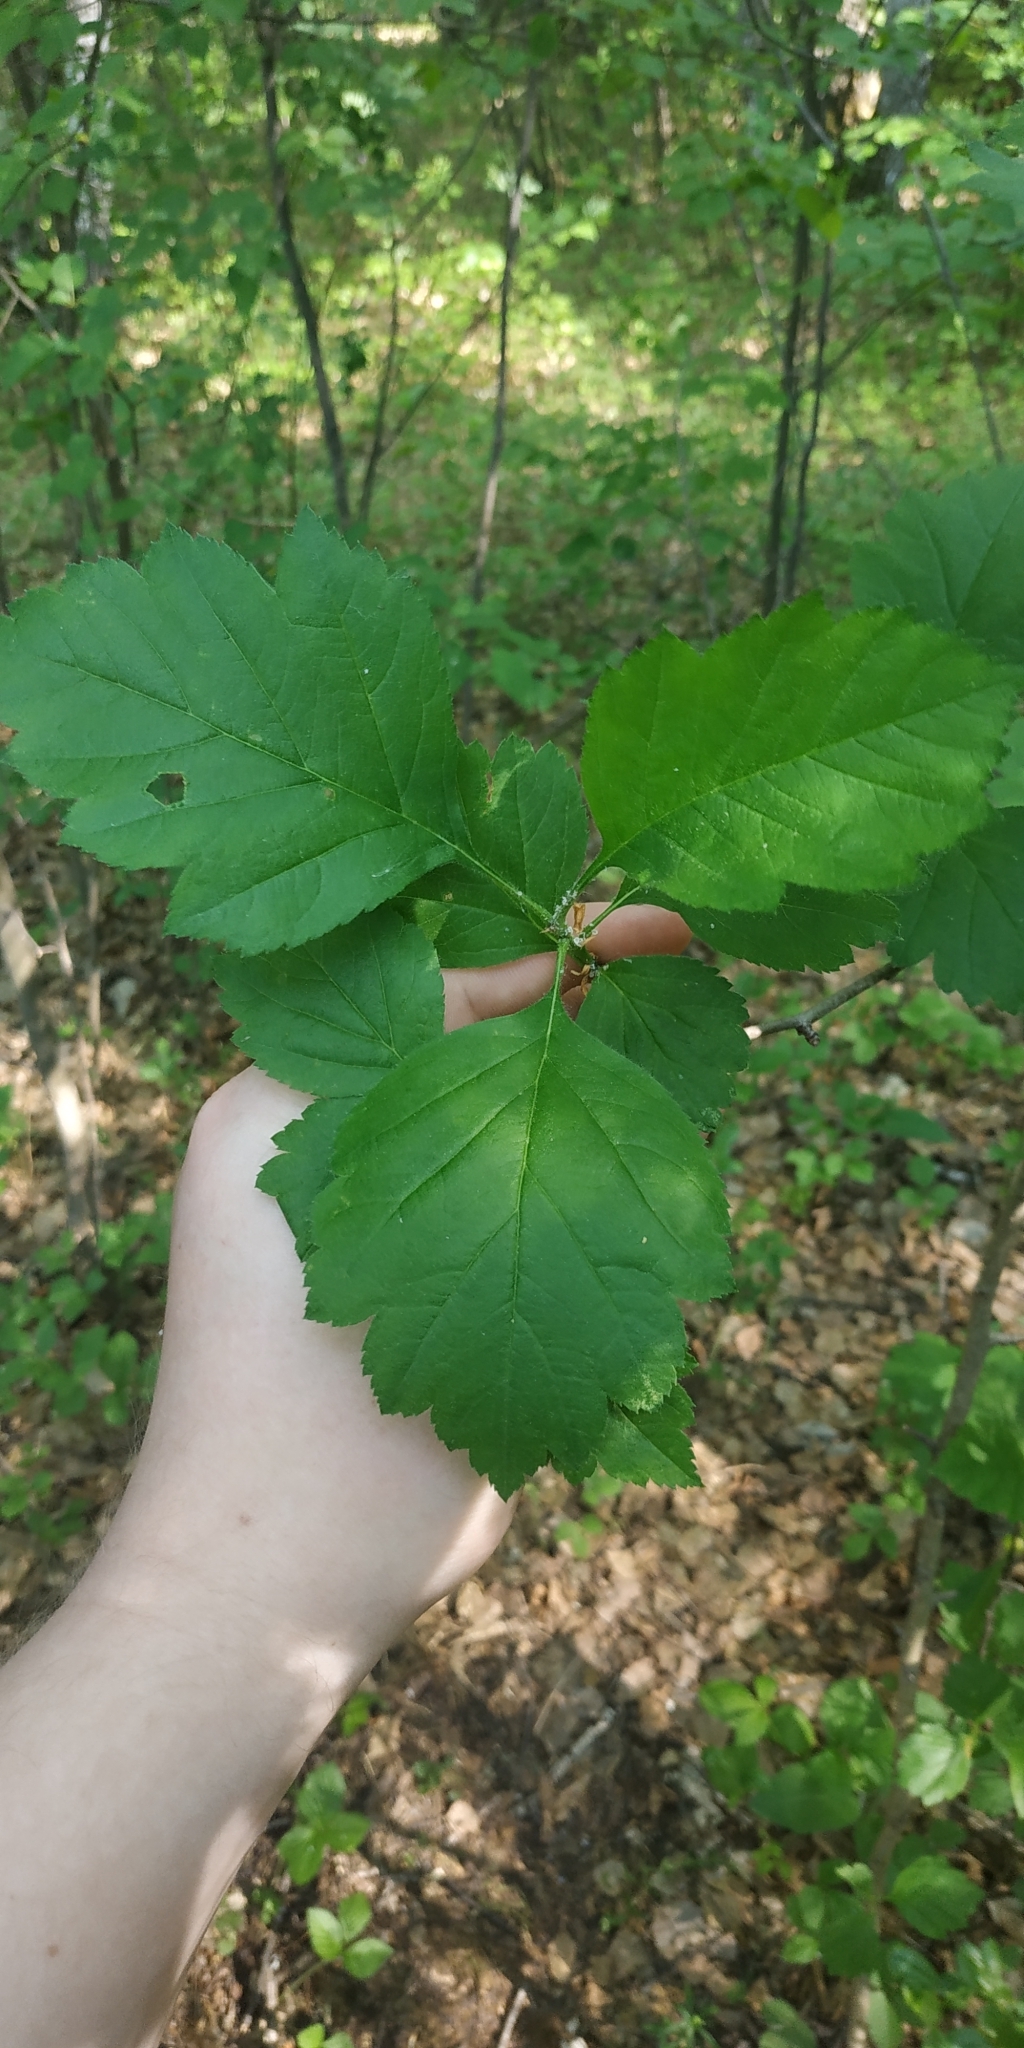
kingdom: Plantae
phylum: Tracheophyta
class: Magnoliopsida
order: Rosales
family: Rosaceae
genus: Crataegus
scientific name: Crataegus sanguinea
